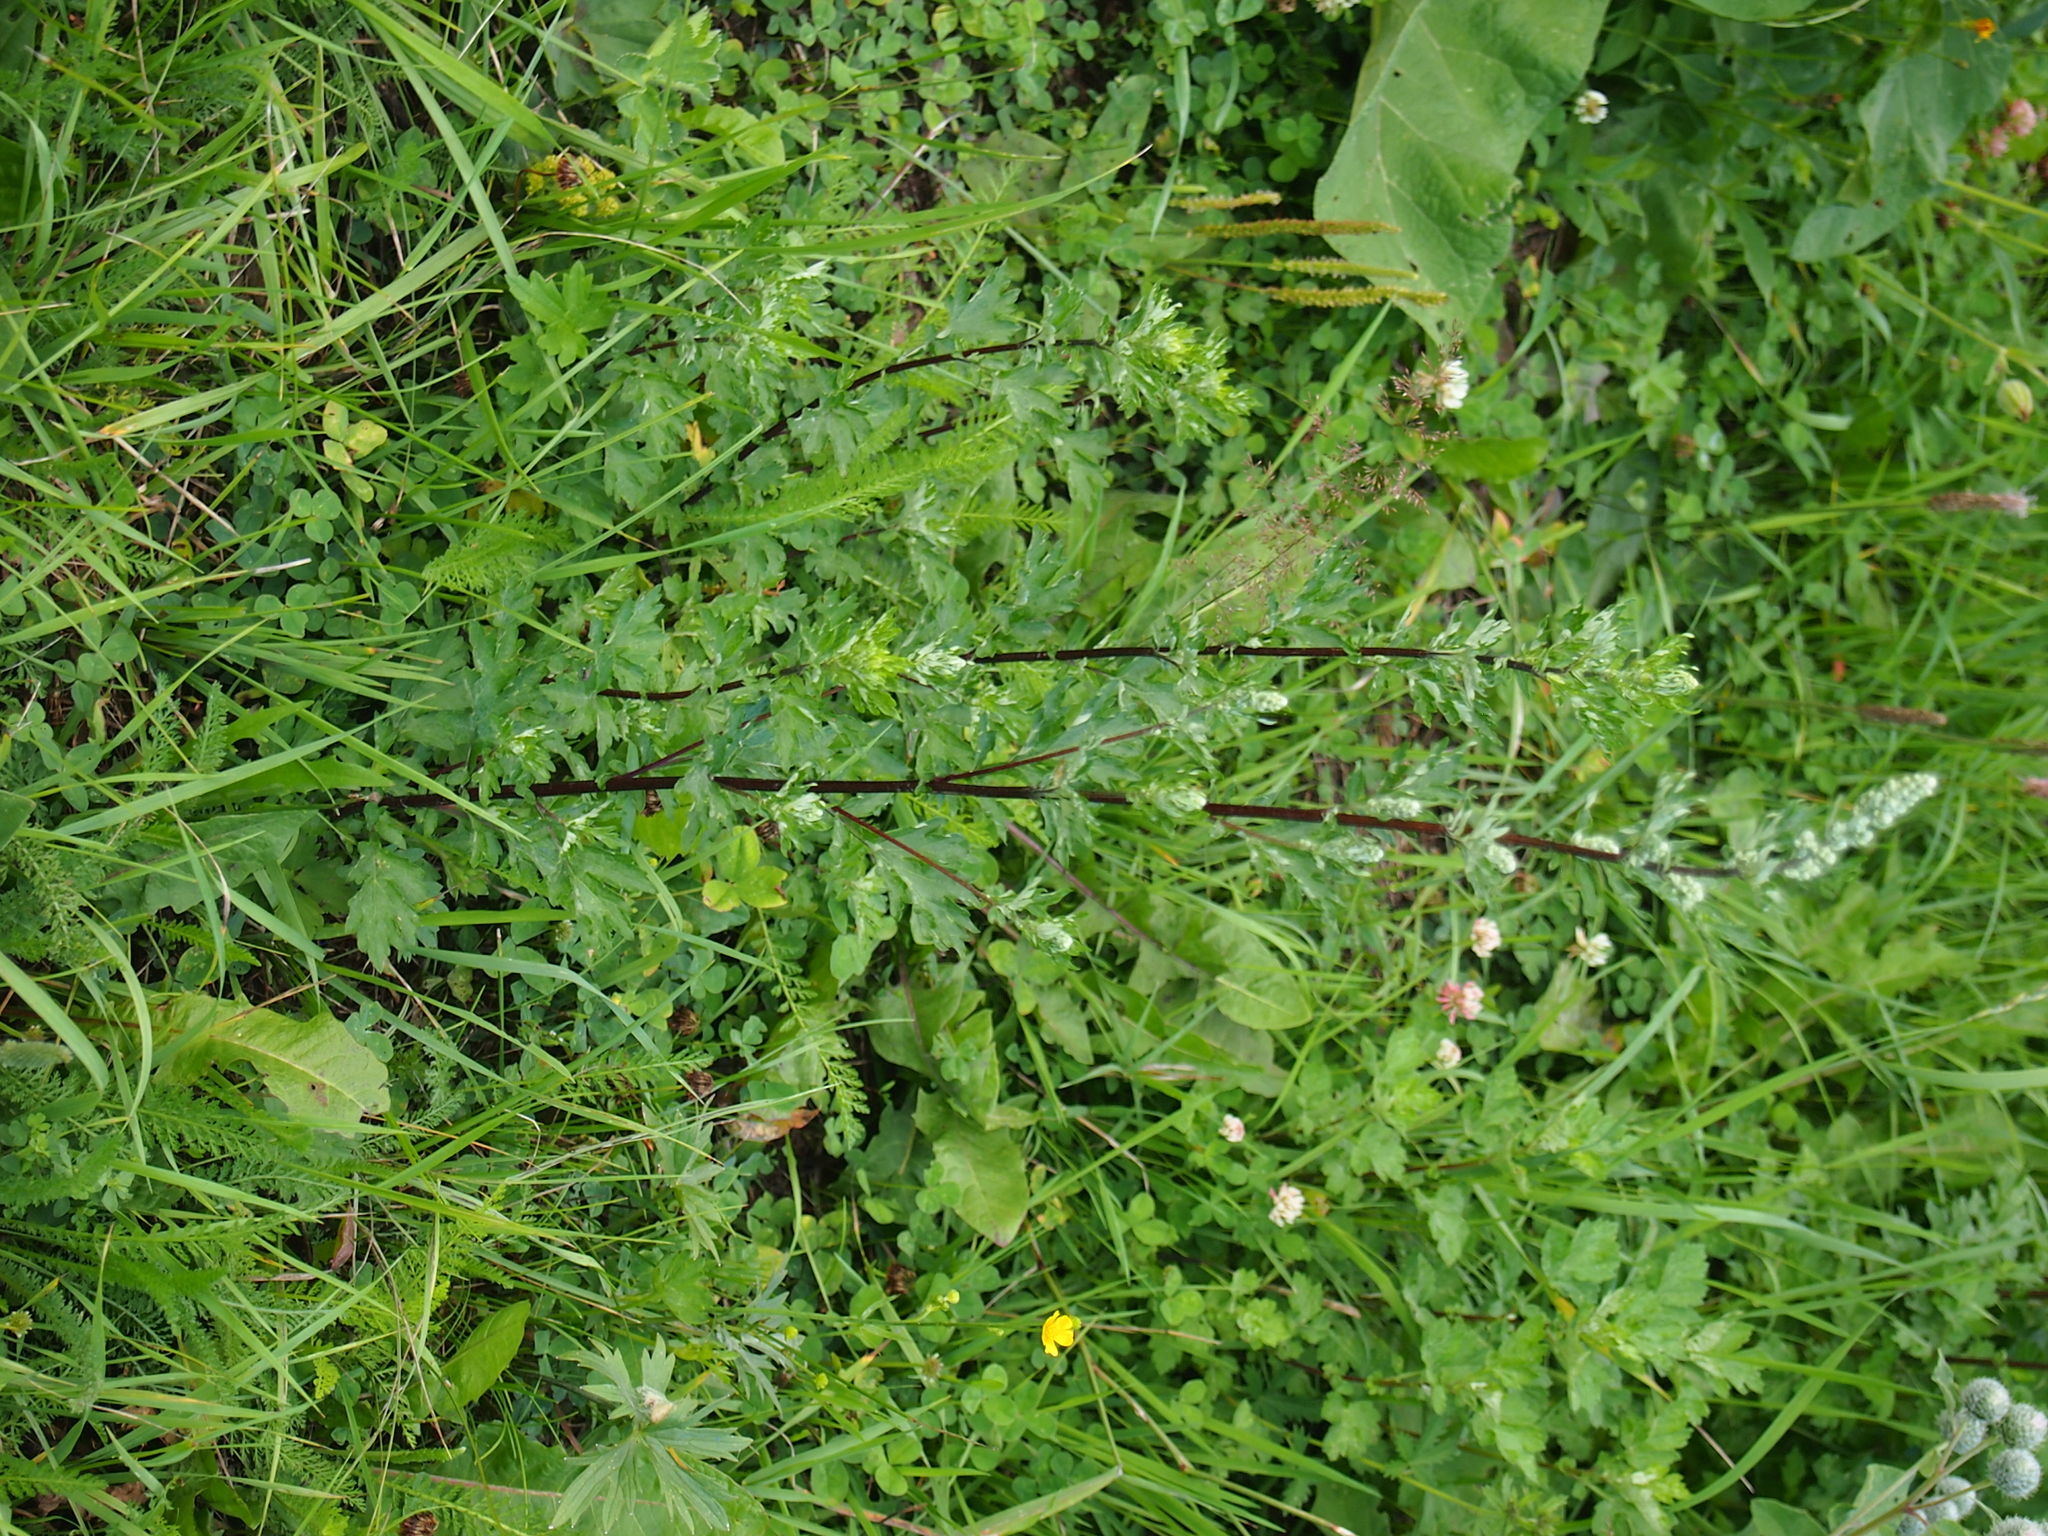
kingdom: Plantae
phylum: Tracheophyta
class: Magnoliopsida
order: Asterales
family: Asteraceae
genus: Artemisia
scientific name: Artemisia vulgaris
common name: Mugwort
